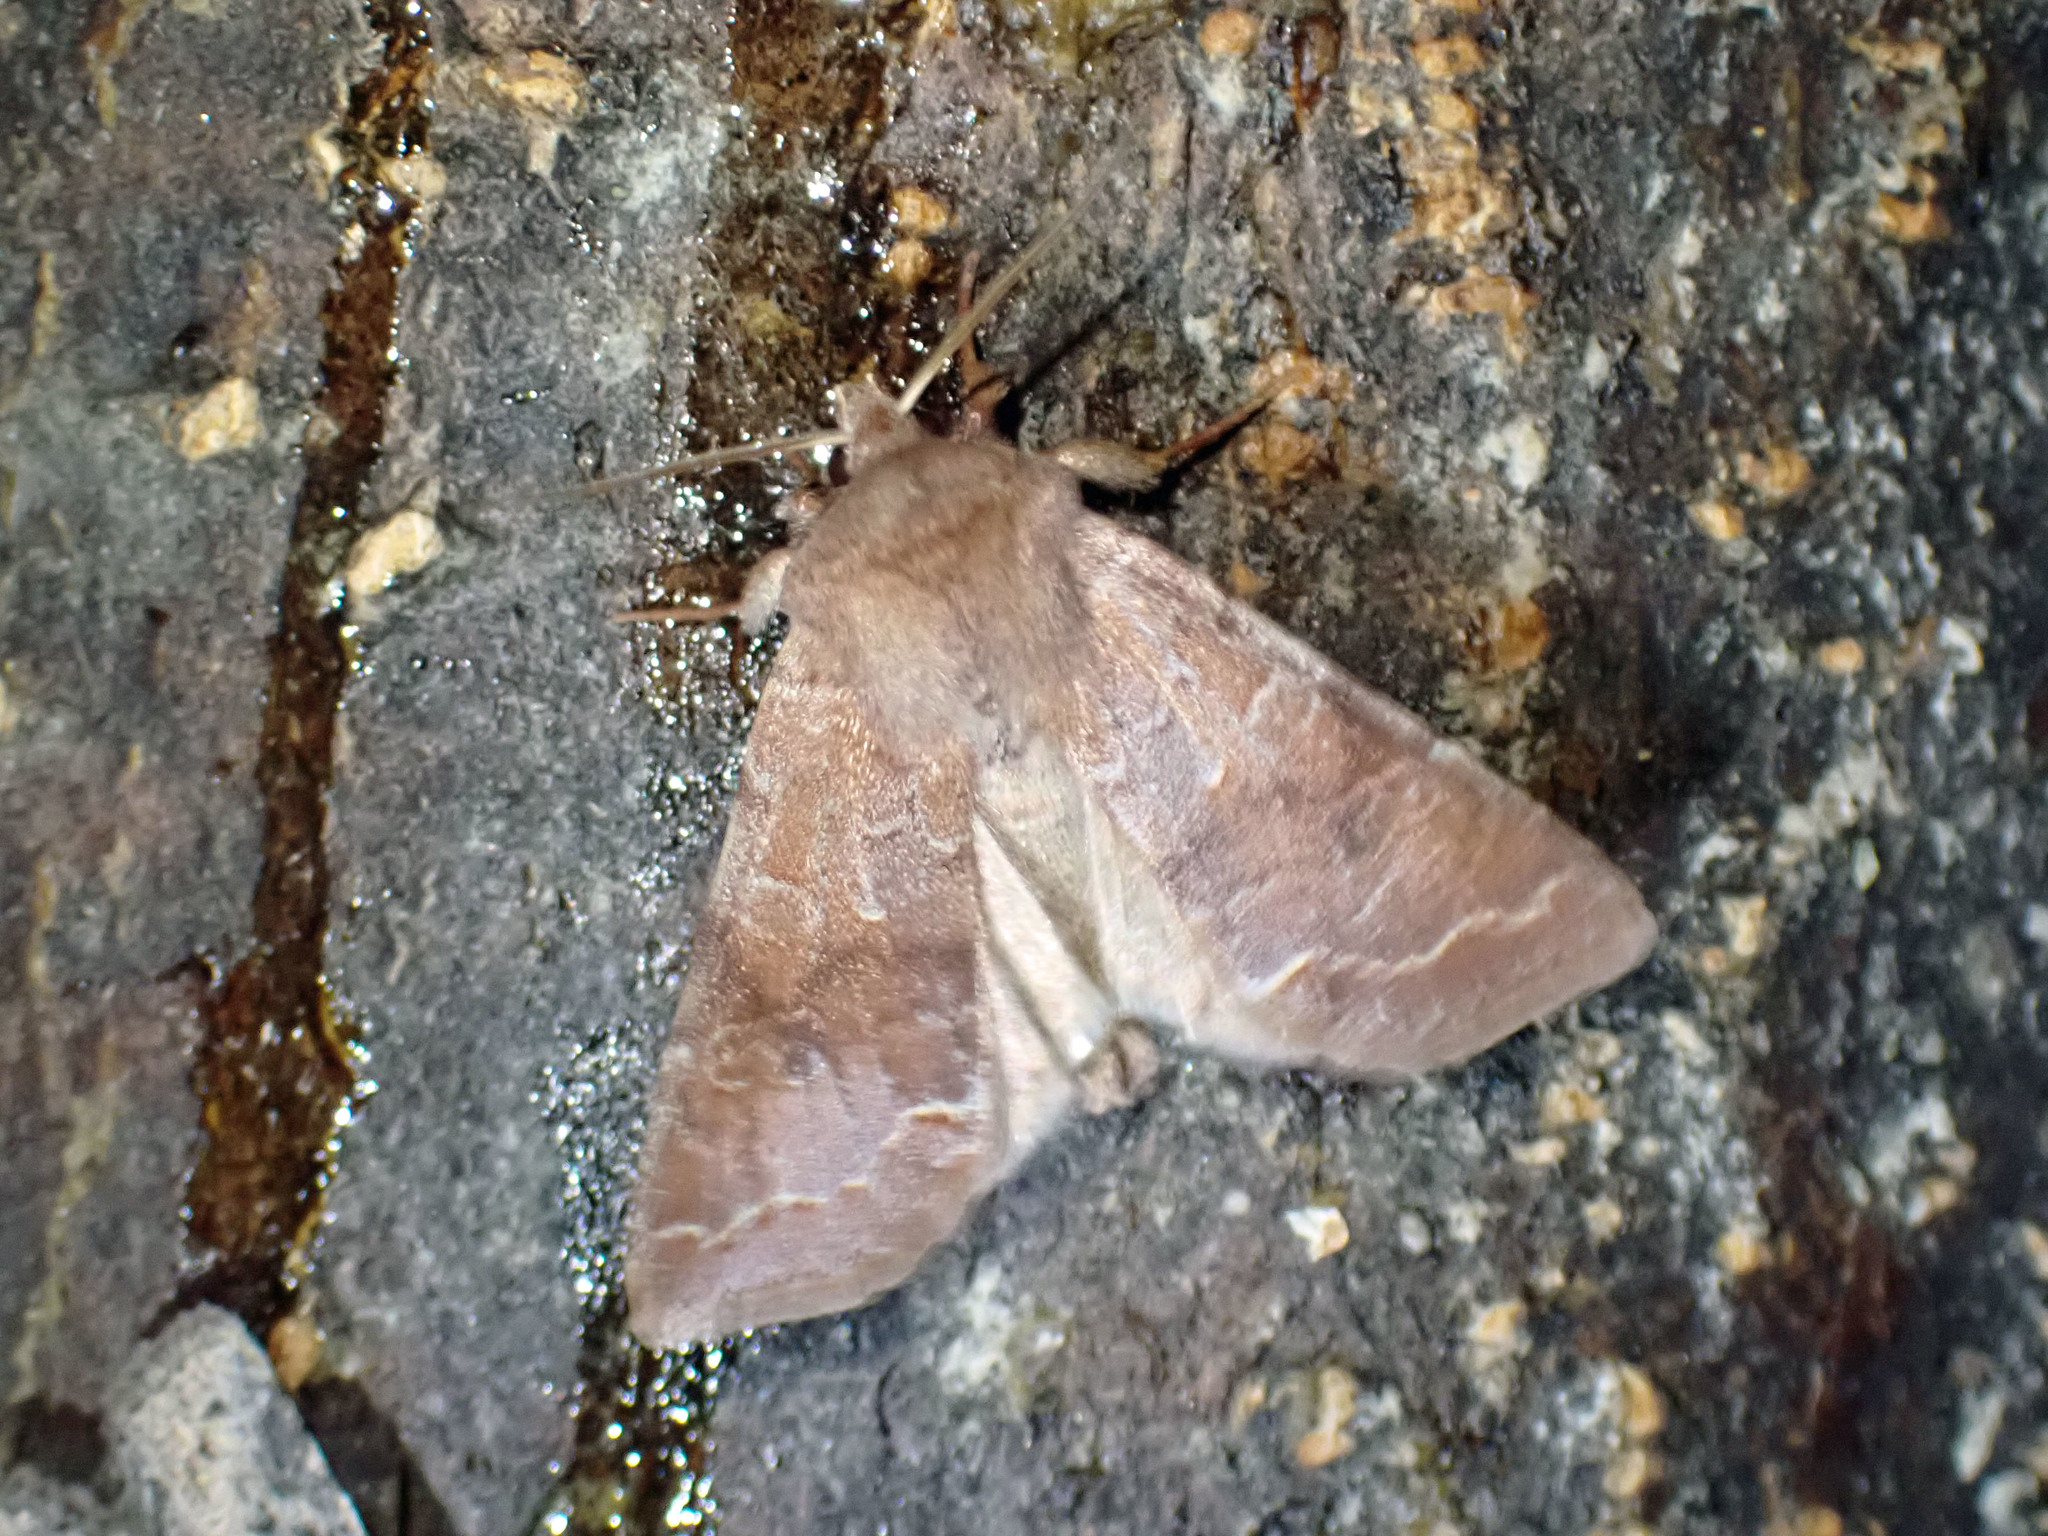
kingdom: Animalia
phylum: Arthropoda
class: Insecta
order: Lepidoptera
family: Noctuidae
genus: Orthosia
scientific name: Orthosia revicta
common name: Rusty whitesided caterpillar
